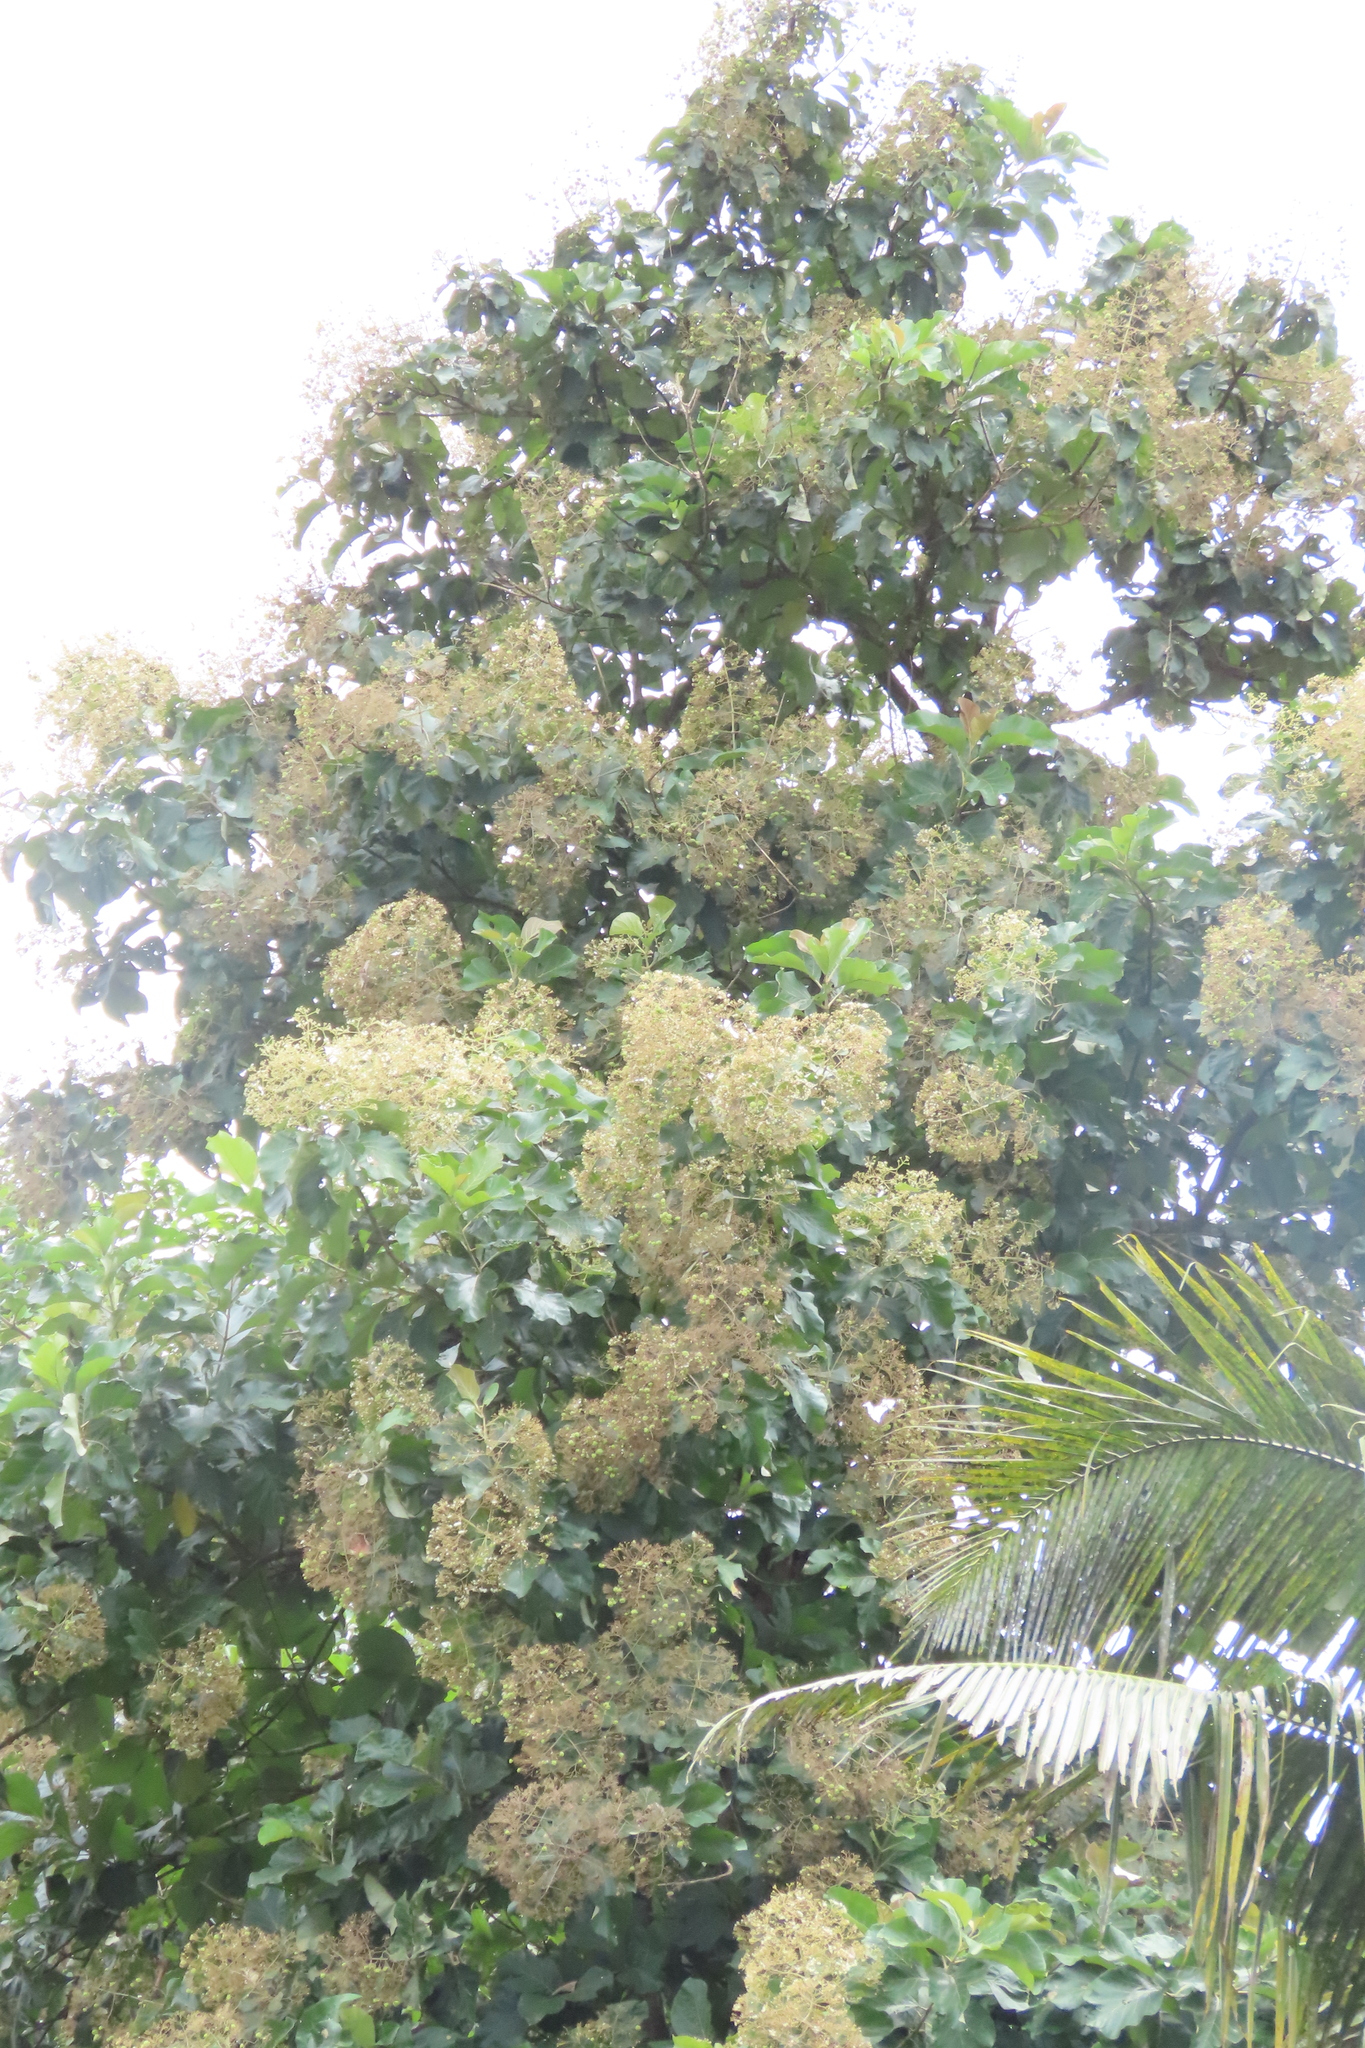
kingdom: Plantae
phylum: Tracheophyta
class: Magnoliopsida
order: Lamiales
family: Lamiaceae
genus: Tectona
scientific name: Tectona grandis
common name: Teak
